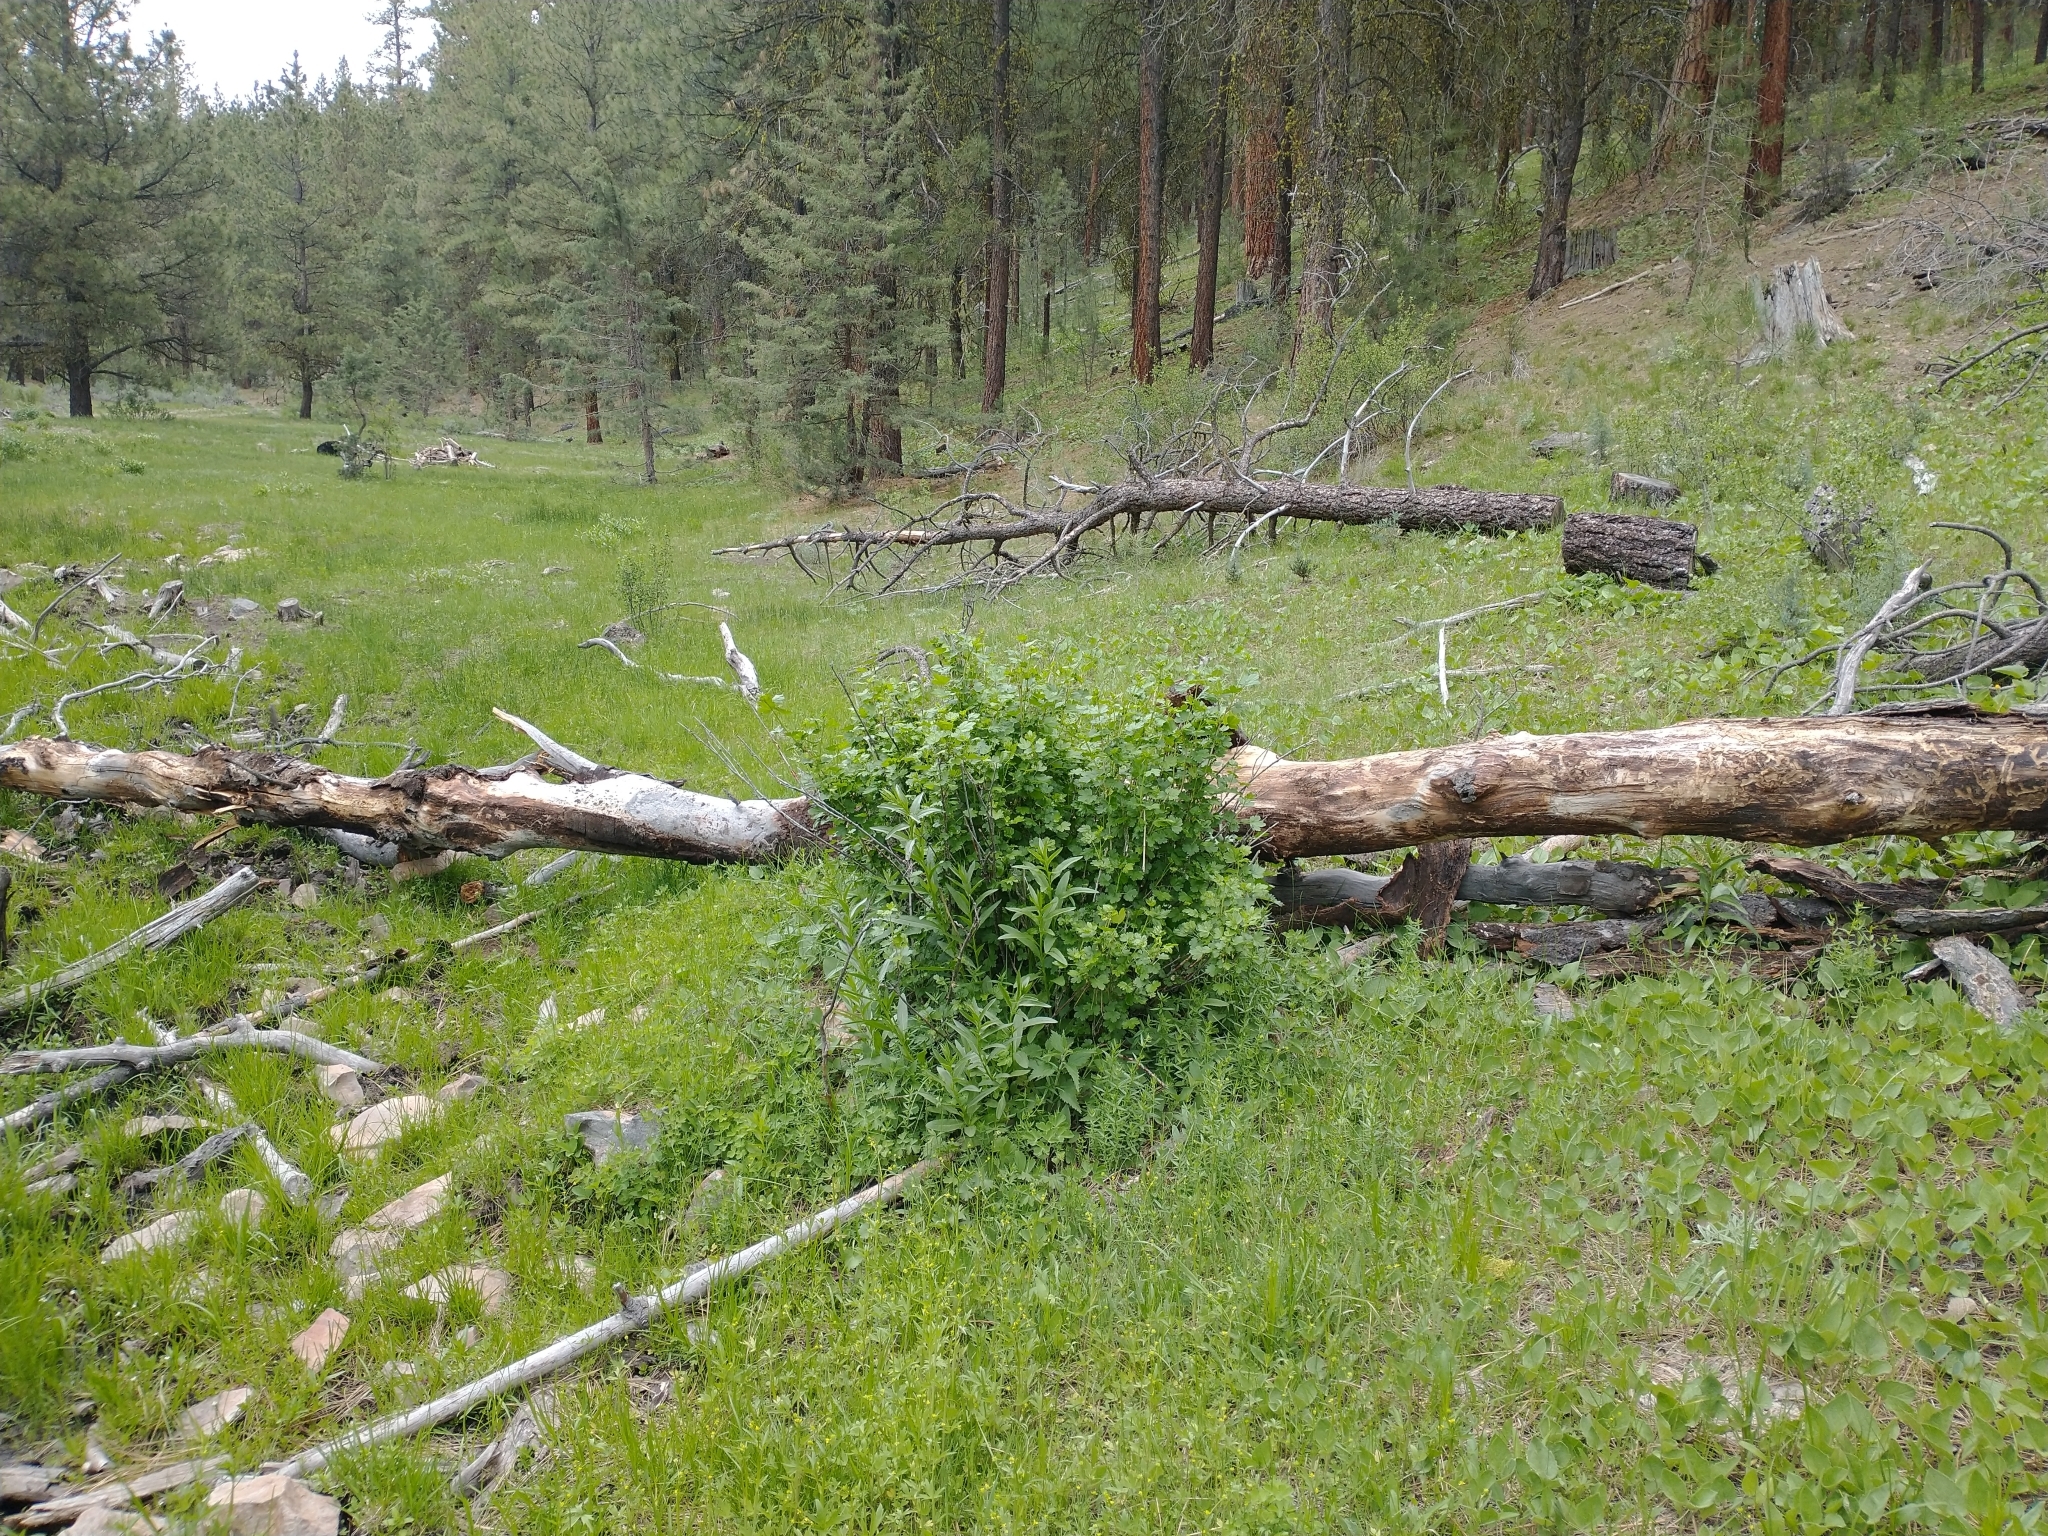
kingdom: Plantae
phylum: Tracheophyta
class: Magnoliopsida
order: Saxifragales
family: Grossulariaceae
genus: Ribes
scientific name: Ribes inerme
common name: White-stem gooseberry
